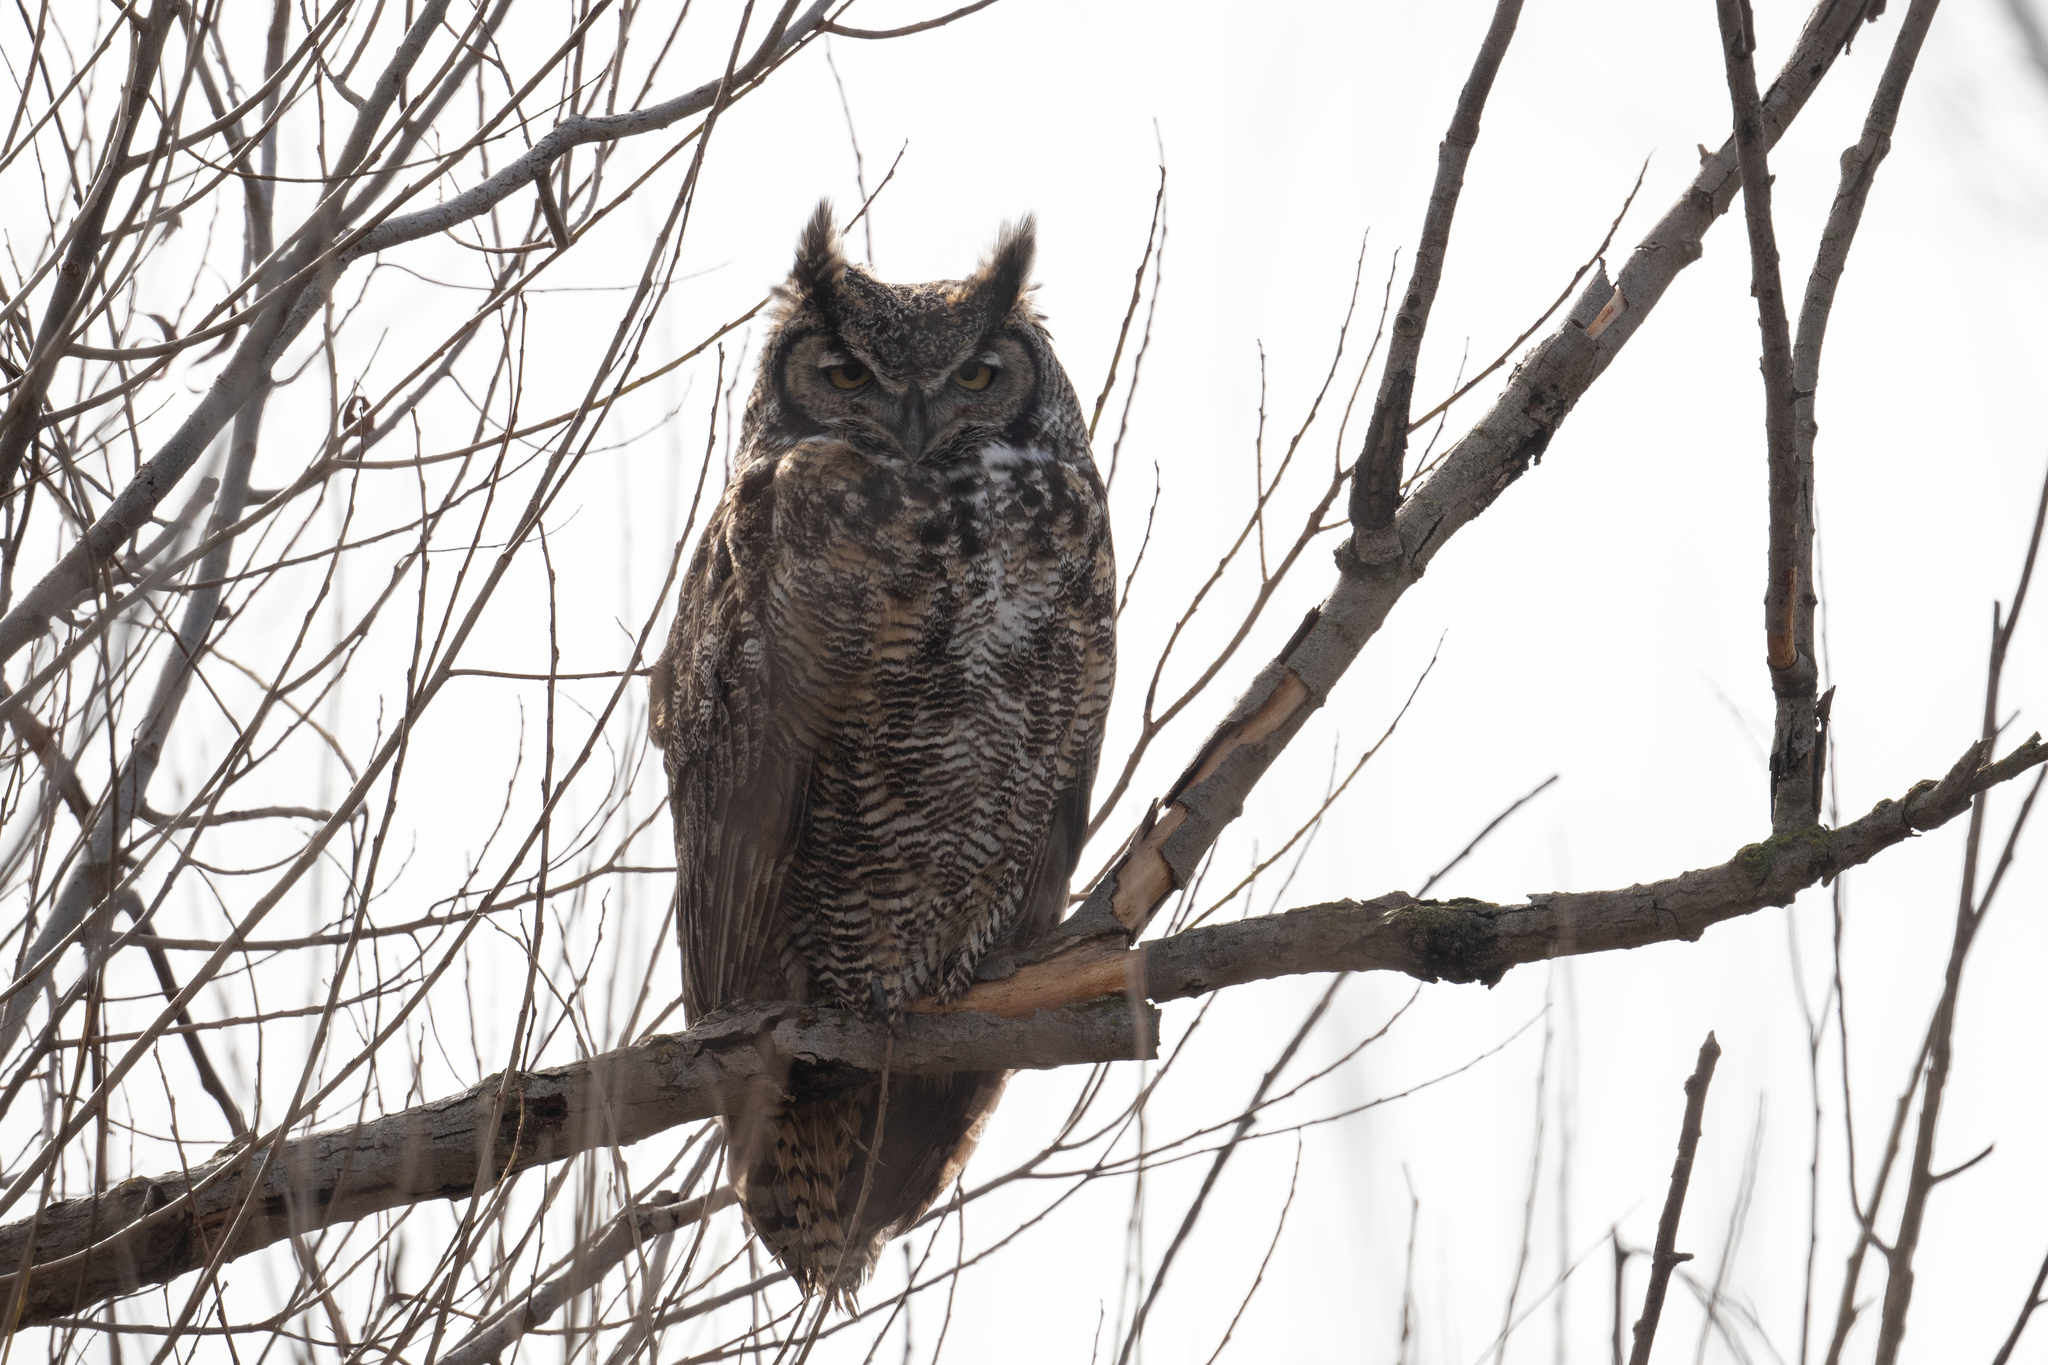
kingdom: Animalia
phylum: Chordata
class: Aves
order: Strigiformes
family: Strigidae
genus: Bubo
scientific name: Bubo virginianus
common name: Great horned owl
